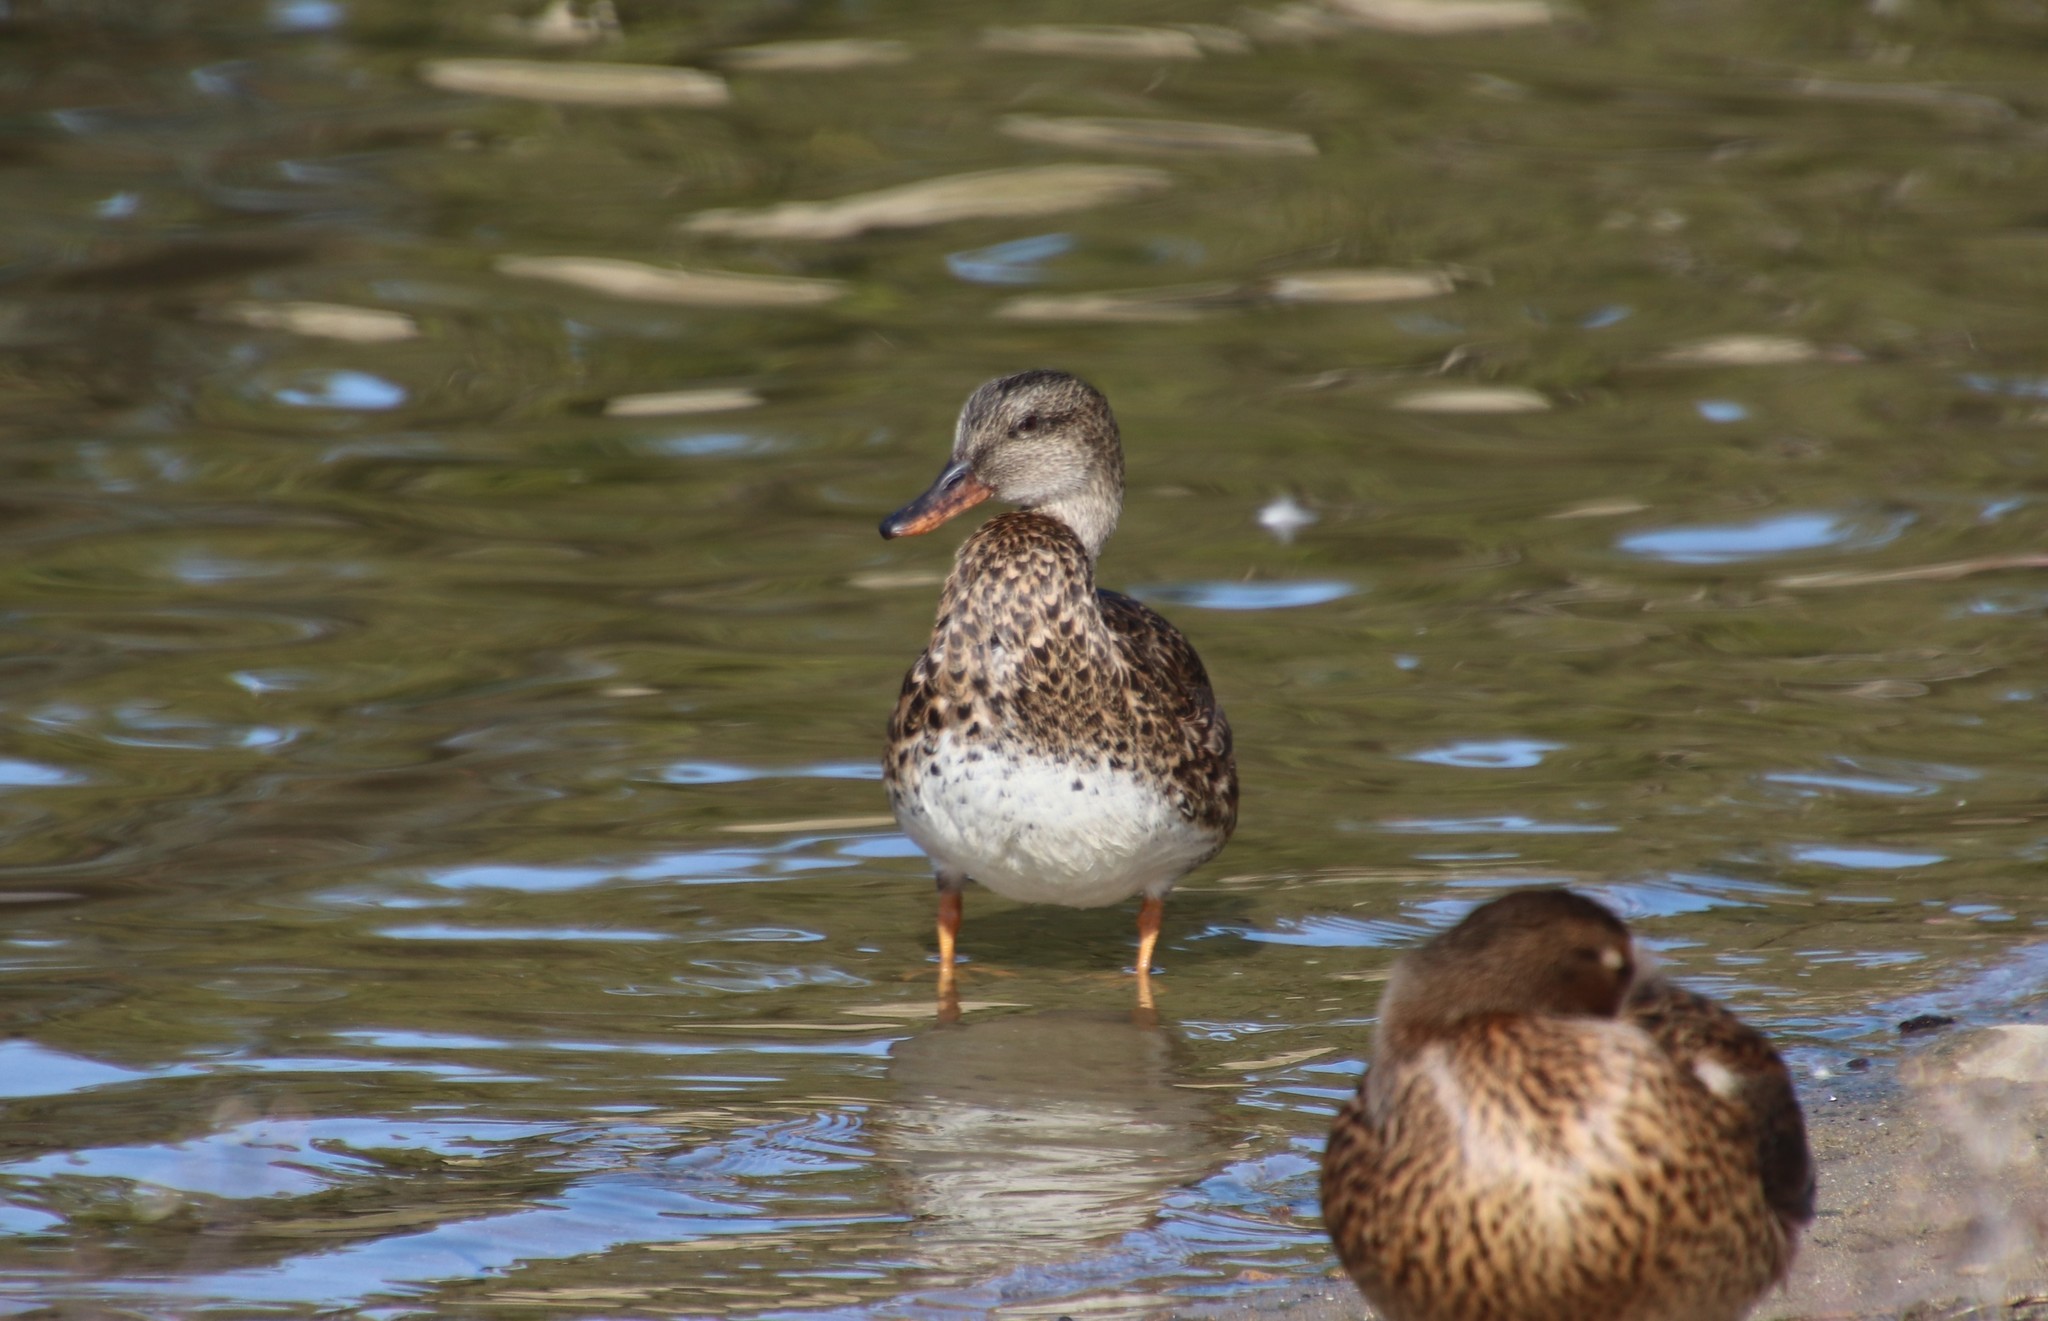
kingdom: Animalia
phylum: Chordata
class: Aves
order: Anseriformes
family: Anatidae
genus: Mareca
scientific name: Mareca strepera
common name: Gadwall
